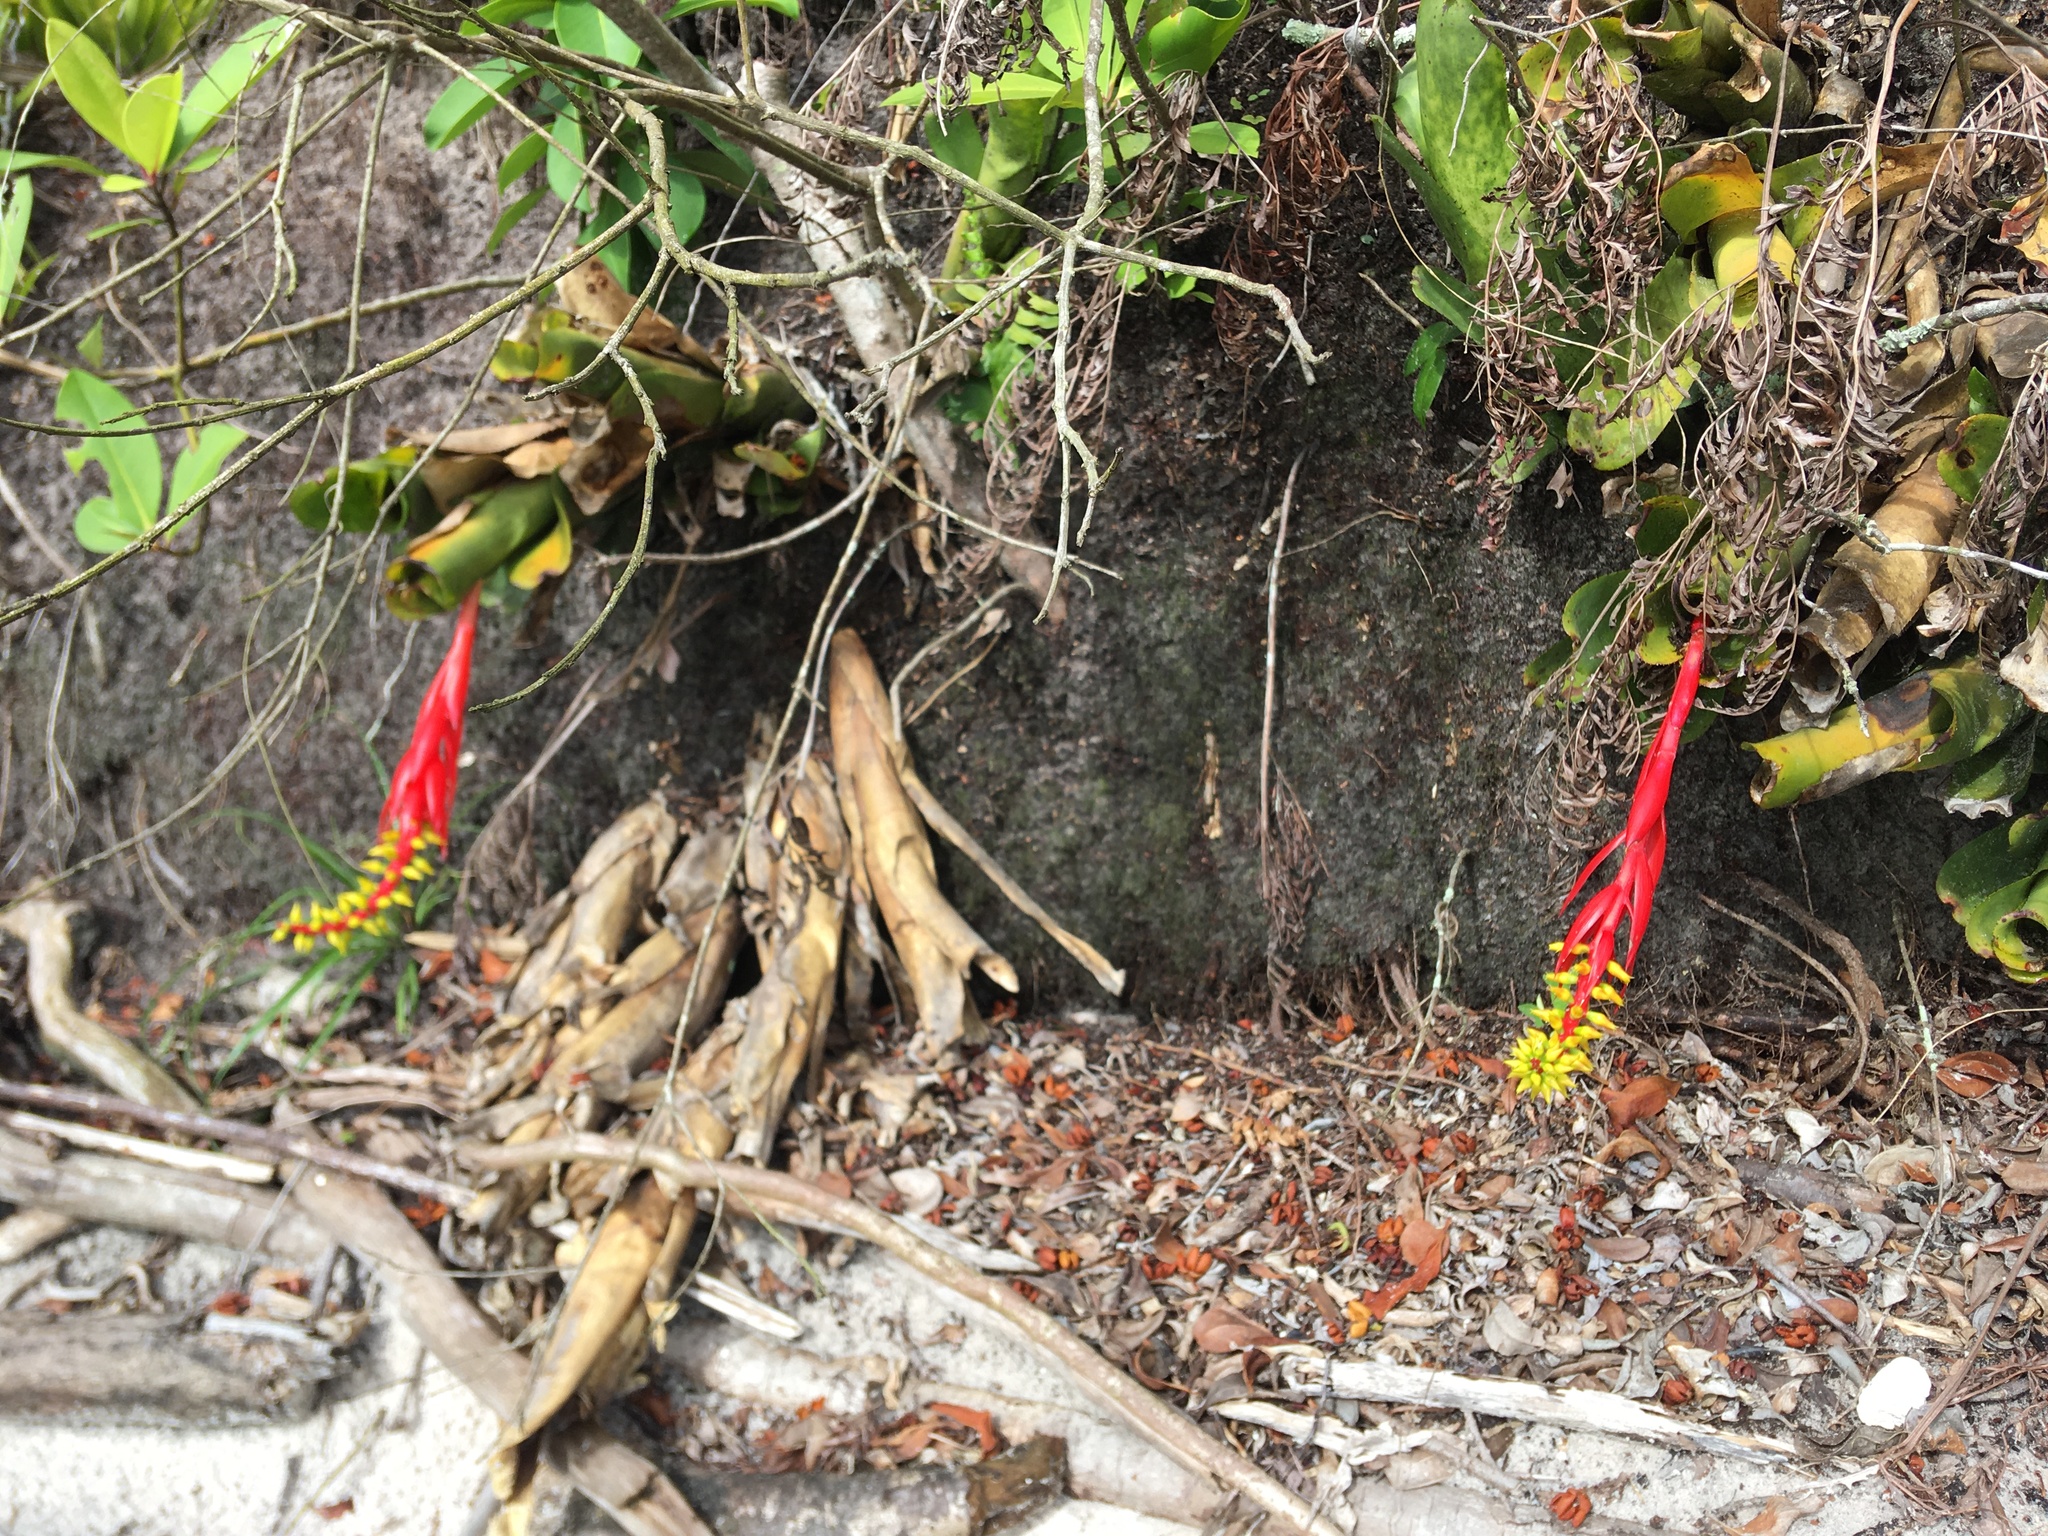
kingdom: Plantae
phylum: Tracheophyta
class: Liliopsida
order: Poales
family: Bromeliaceae
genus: Aechmea
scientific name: Aechmea nudicaulis
